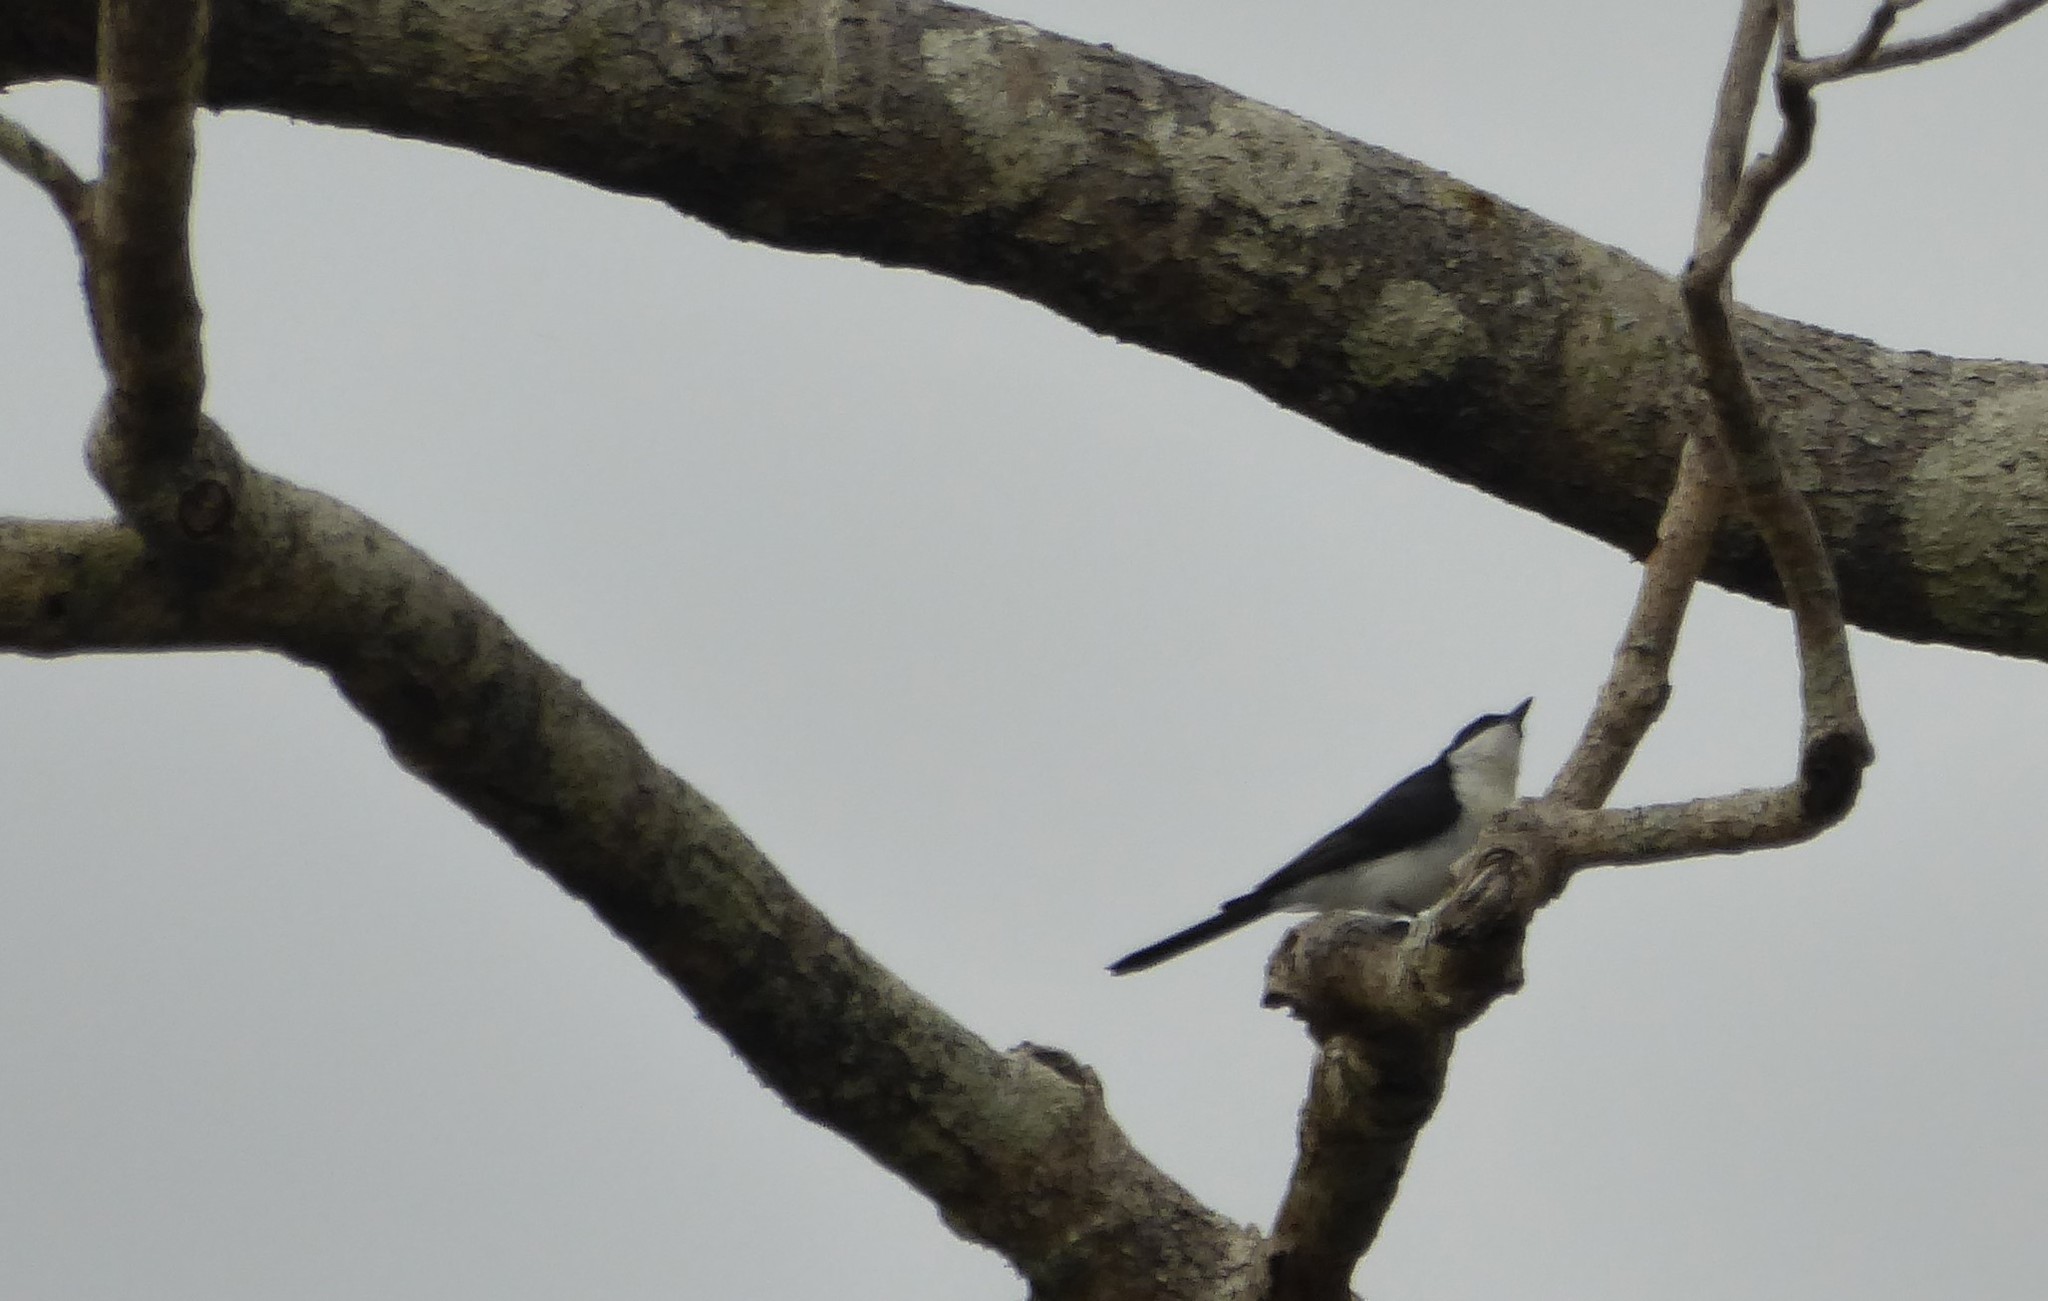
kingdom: Animalia
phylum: Chordata
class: Aves
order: Passeriformes
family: Monarchidae
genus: Myiagra
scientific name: Myiagra inquieta
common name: Restless flycatcher
